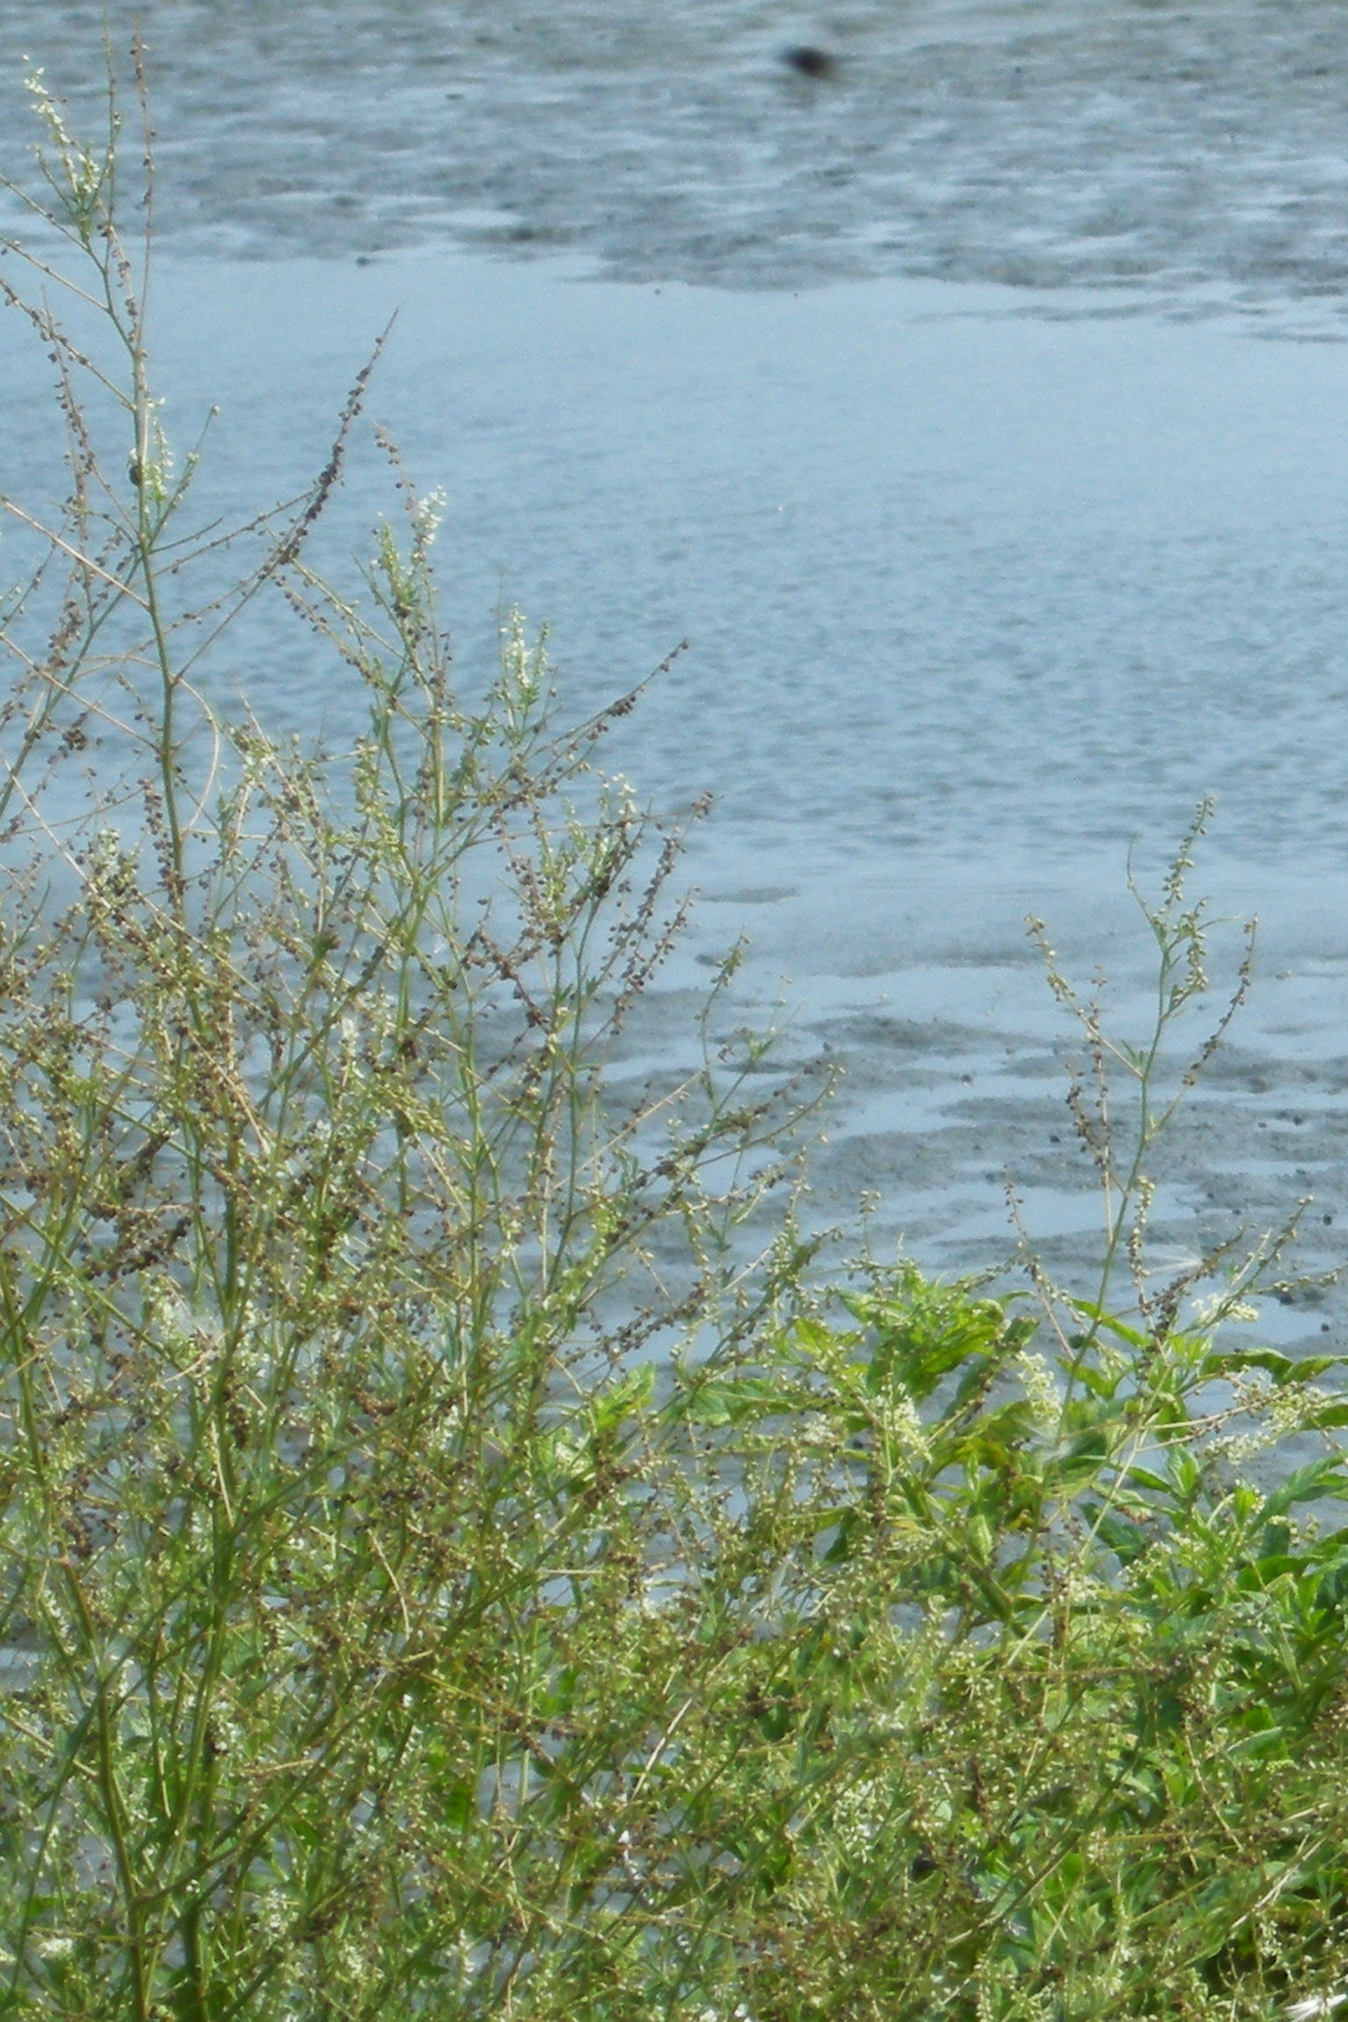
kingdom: Plantae
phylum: Tracheophyta
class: Magnoliopsida
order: Fabales
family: Fabaceae
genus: Melilotus
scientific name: Melilotus albus
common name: White melilot
